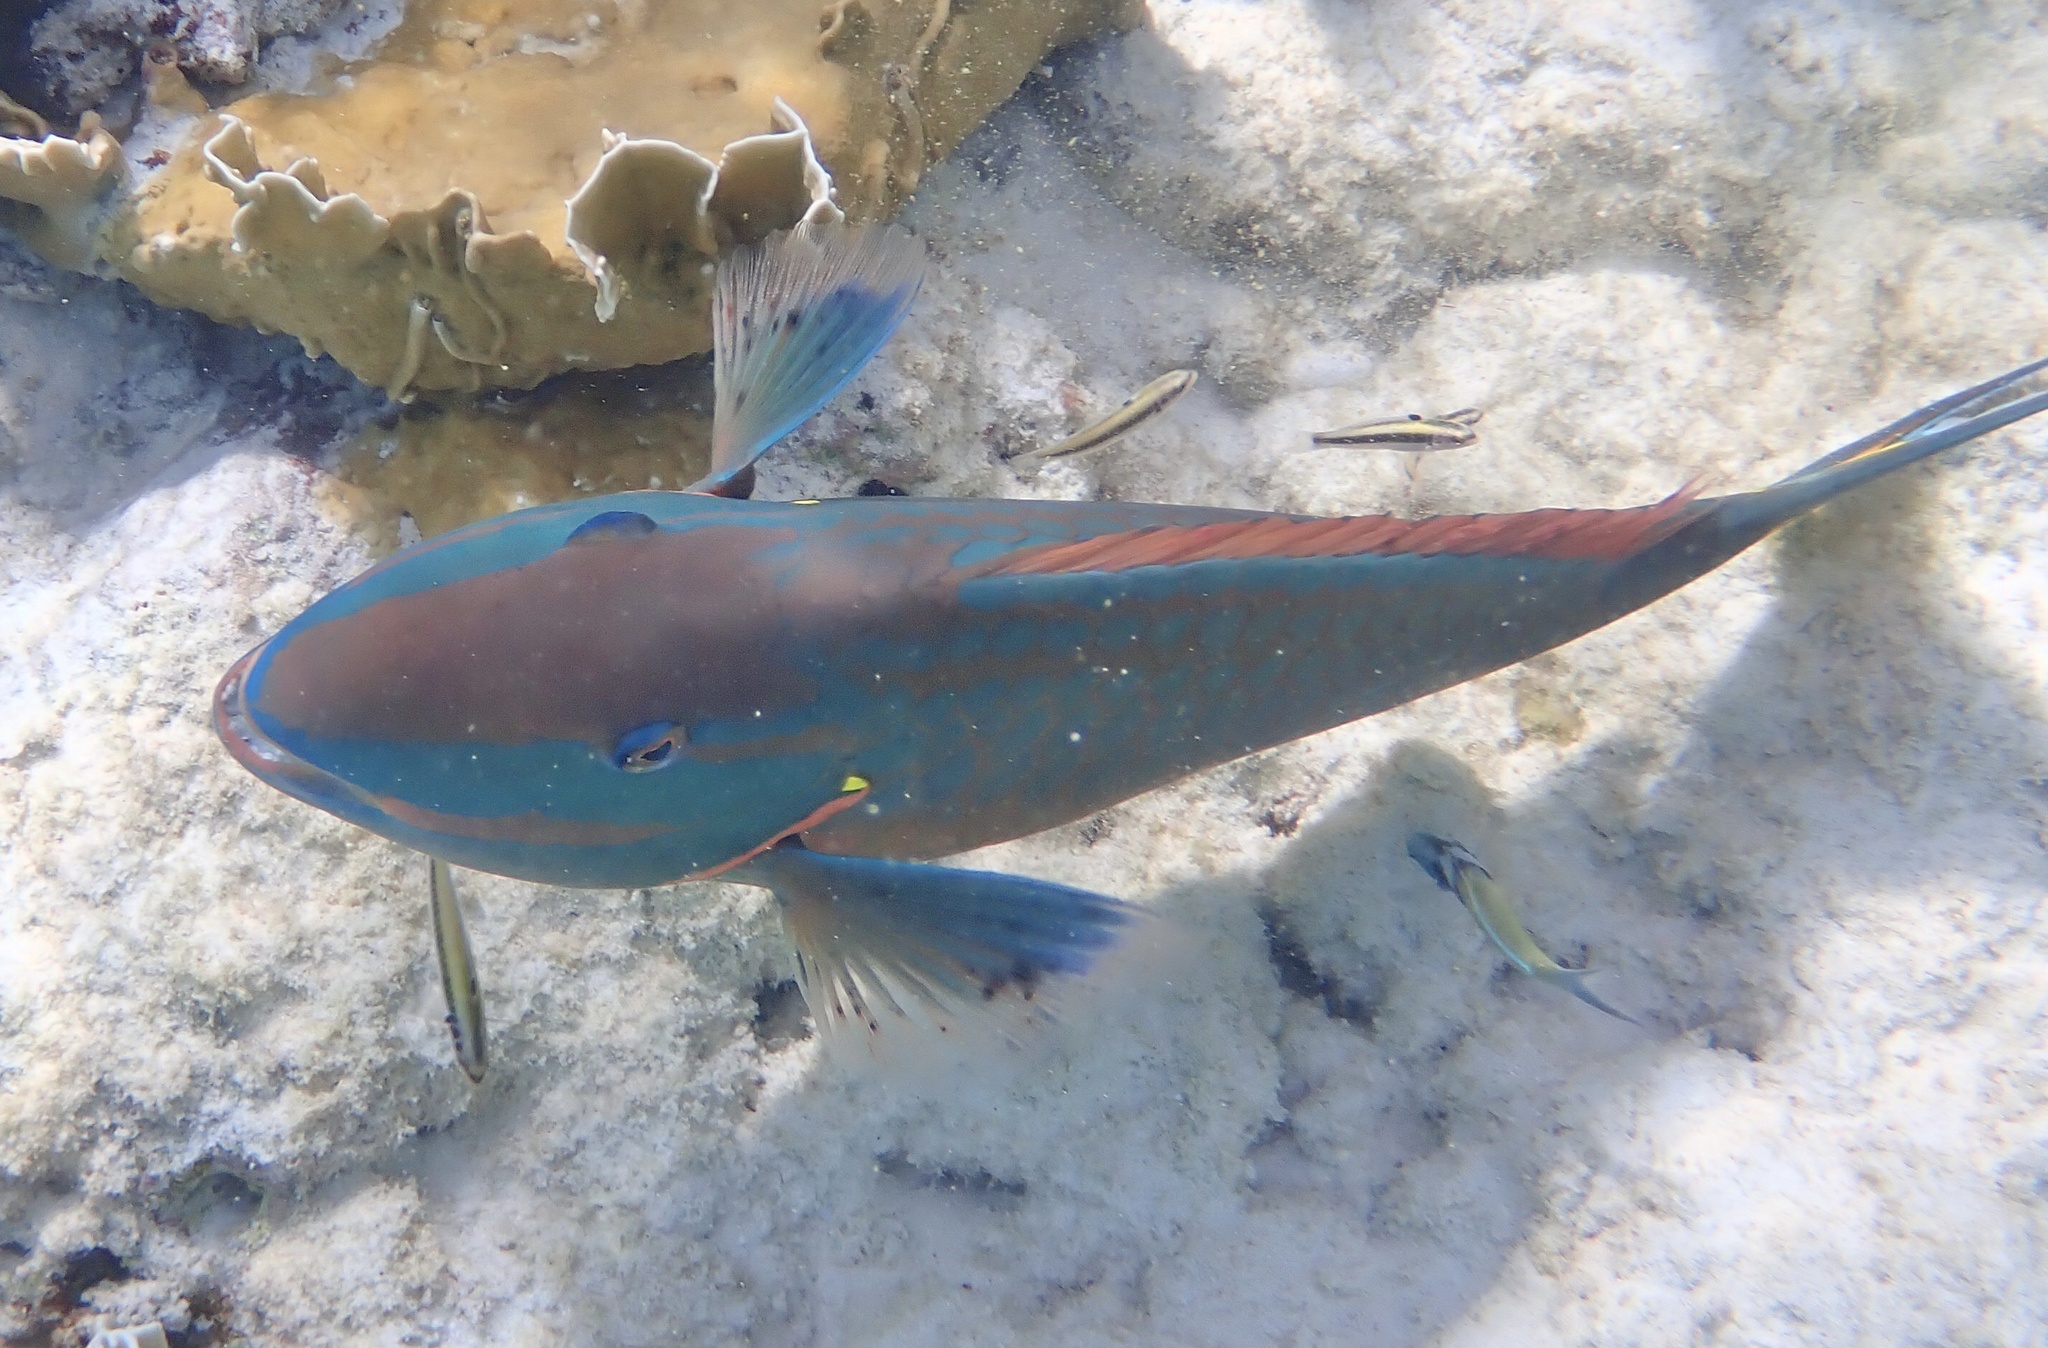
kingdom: Animalia
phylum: Chordata
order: Perciformes
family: Scaridae
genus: Sparisoma
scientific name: Sparisoma viride
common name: Stoplight parrotfish
